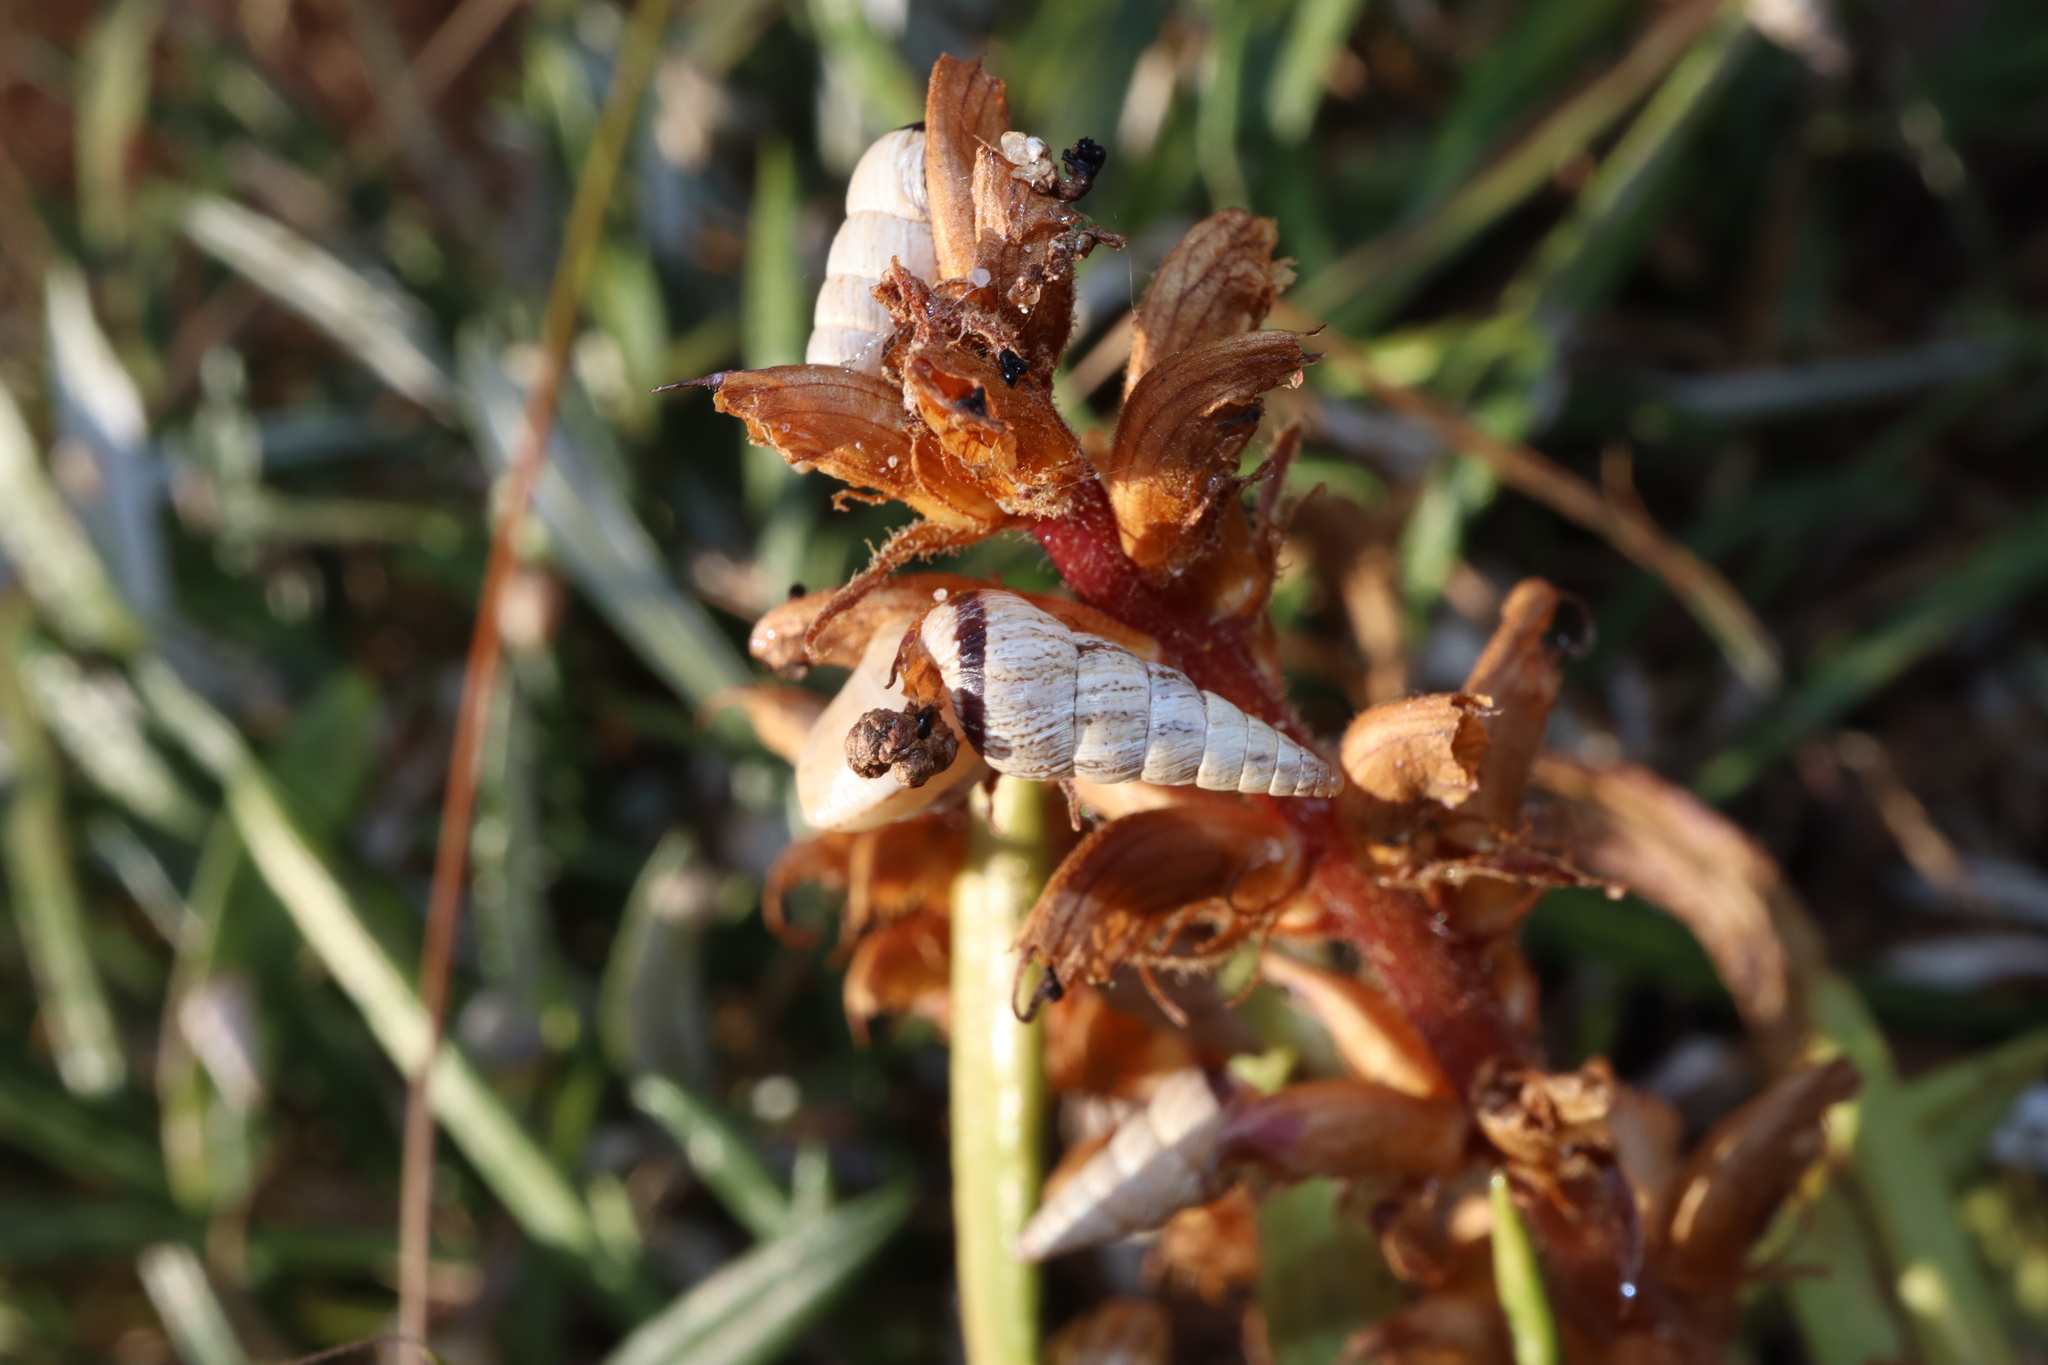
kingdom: Animalia
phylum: Mollusca
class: Gastropoda
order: Stylommatophora
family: Geomitridae
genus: Cochlicella
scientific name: Cochlicella acuta
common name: Pointed snail
